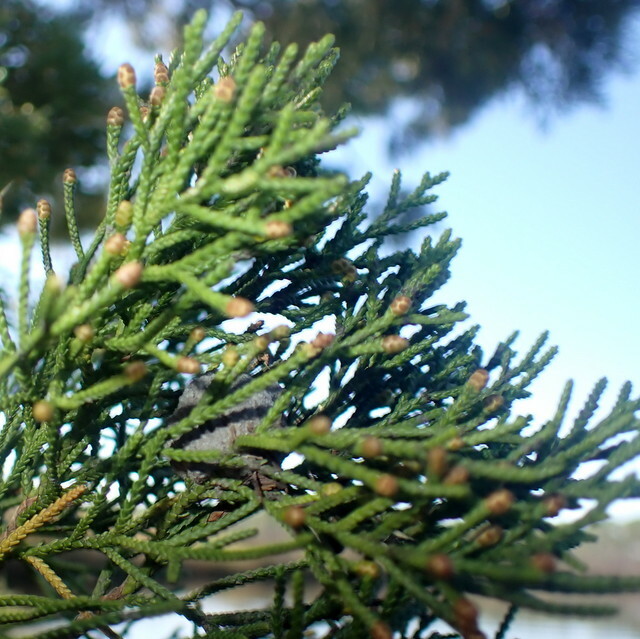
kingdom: Plantae
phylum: Tracheophyta
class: Pinopsida
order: Pinales
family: Cupressaceae
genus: Juniperus
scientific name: Juniperus virginiana
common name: Red juniper
